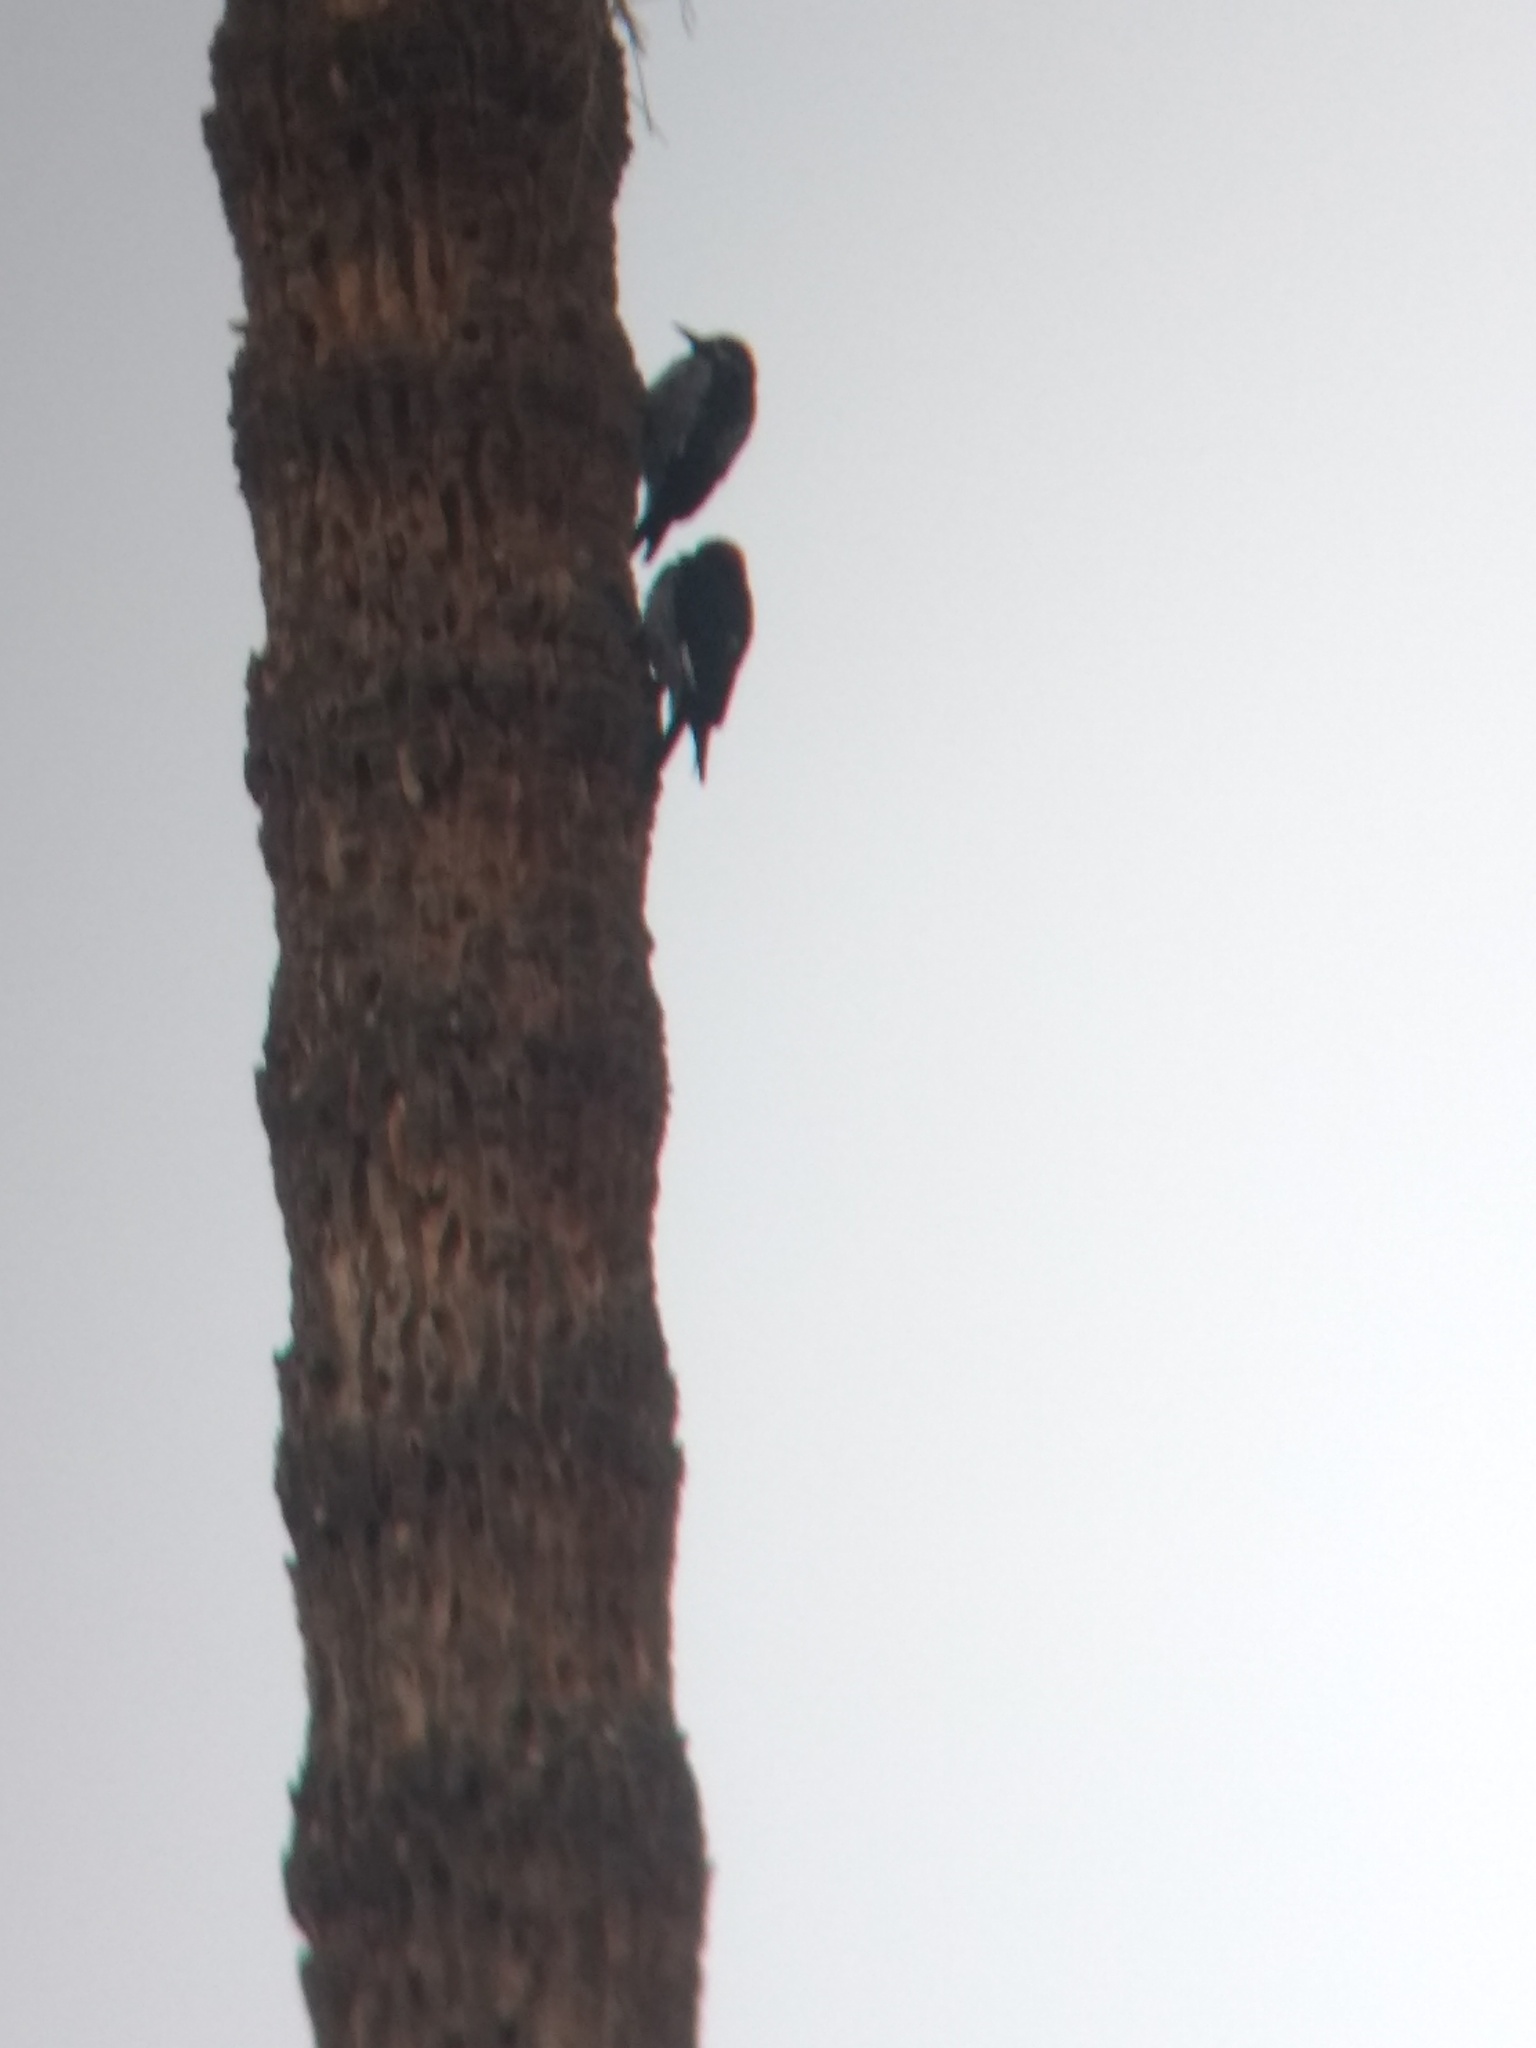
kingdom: Animalia
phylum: Chordata
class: Aves
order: Piciformes
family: Picidae
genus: Melanerpes
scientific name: Melanerpes formicivorus
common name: Acorn woodpecker
